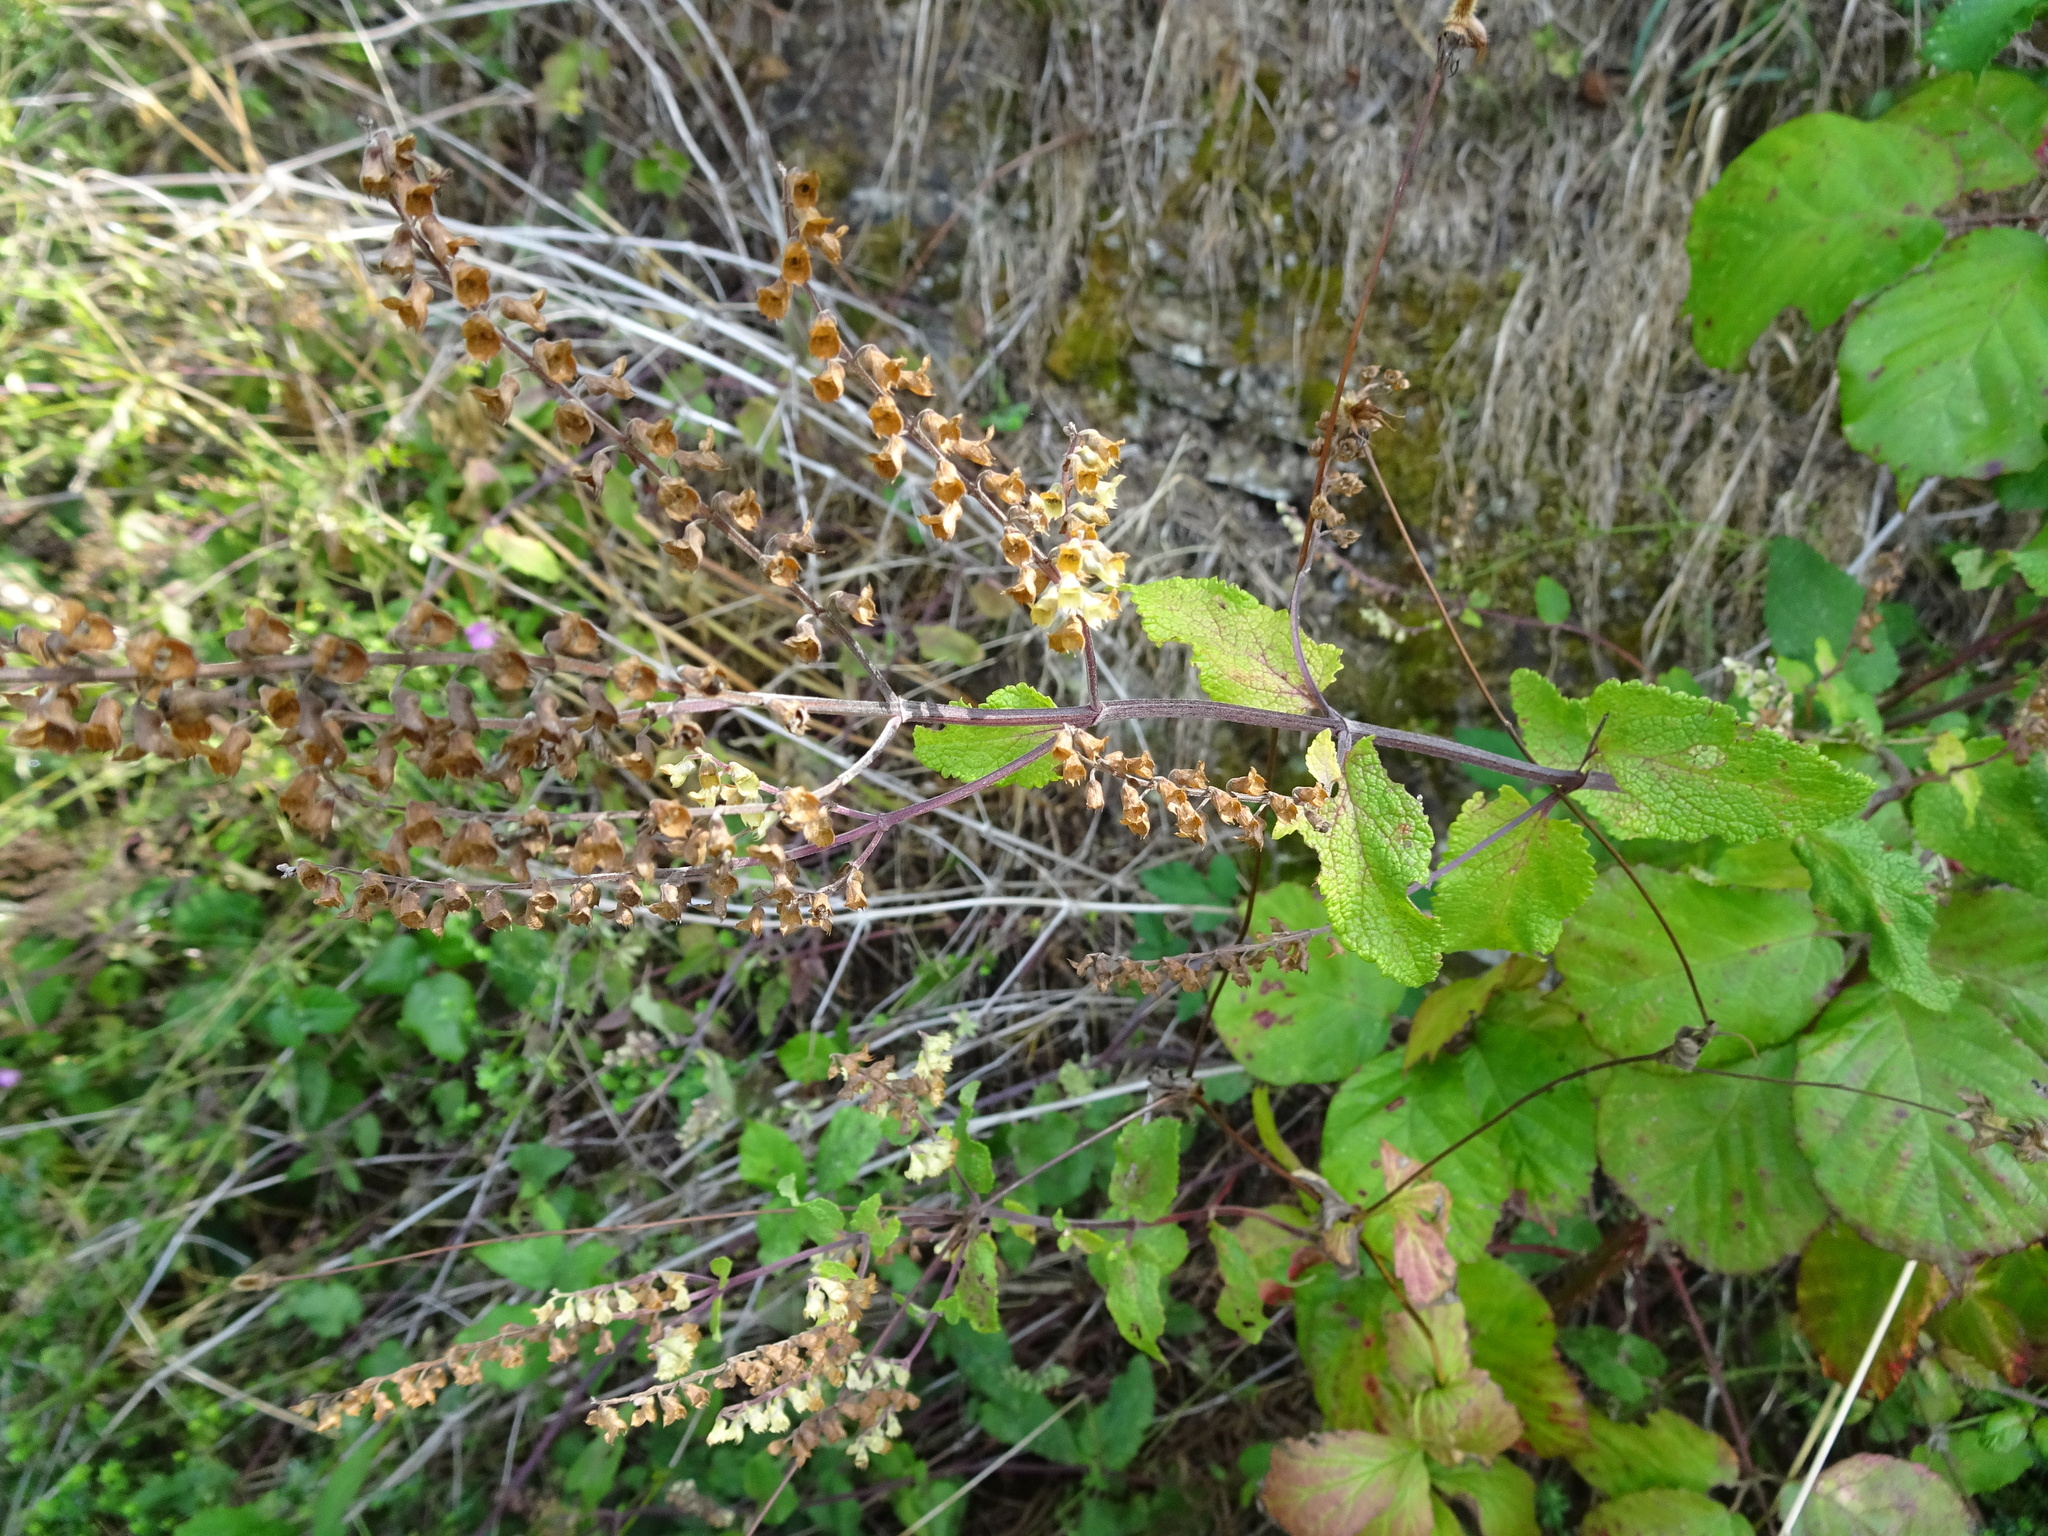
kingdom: Plantae
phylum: Tracheophyta
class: Magnoliopsida
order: Lamiales
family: Lamiaceae
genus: Teucrium
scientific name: Teucrium scorodonia
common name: Woodland germander
